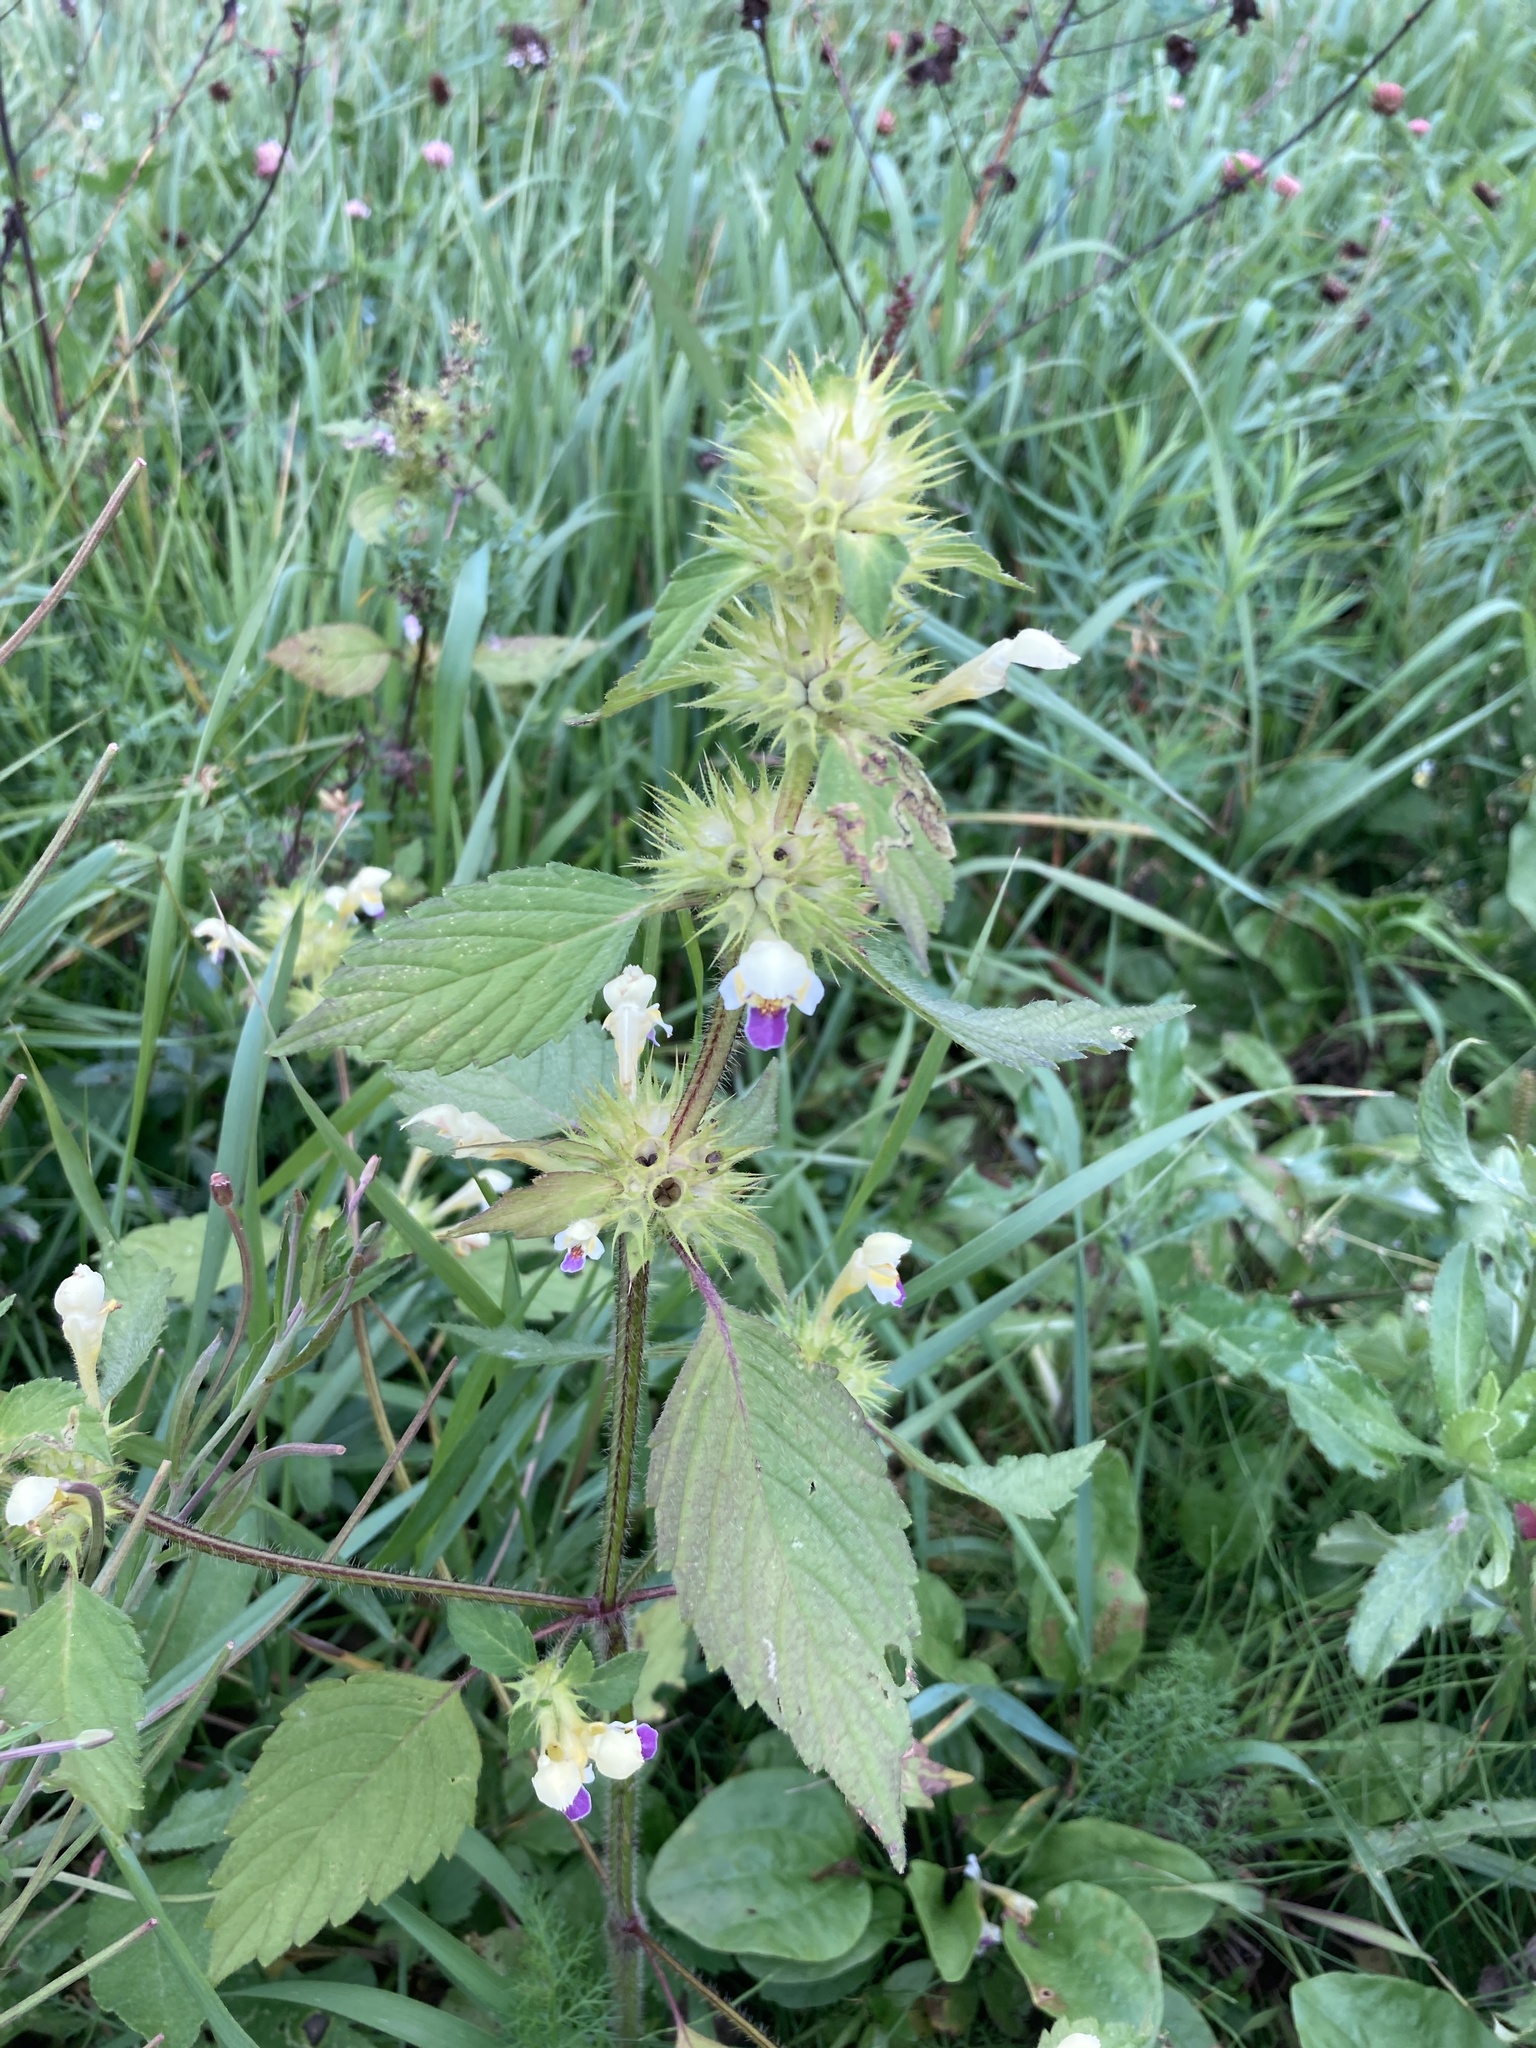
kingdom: Plantae
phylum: Tracheophyta
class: Magnoliopsida
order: Lamiales
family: Lamiaceae
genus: Galeopsis
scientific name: Galeopsis speciosa
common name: Large-flowered hemp-nettle
